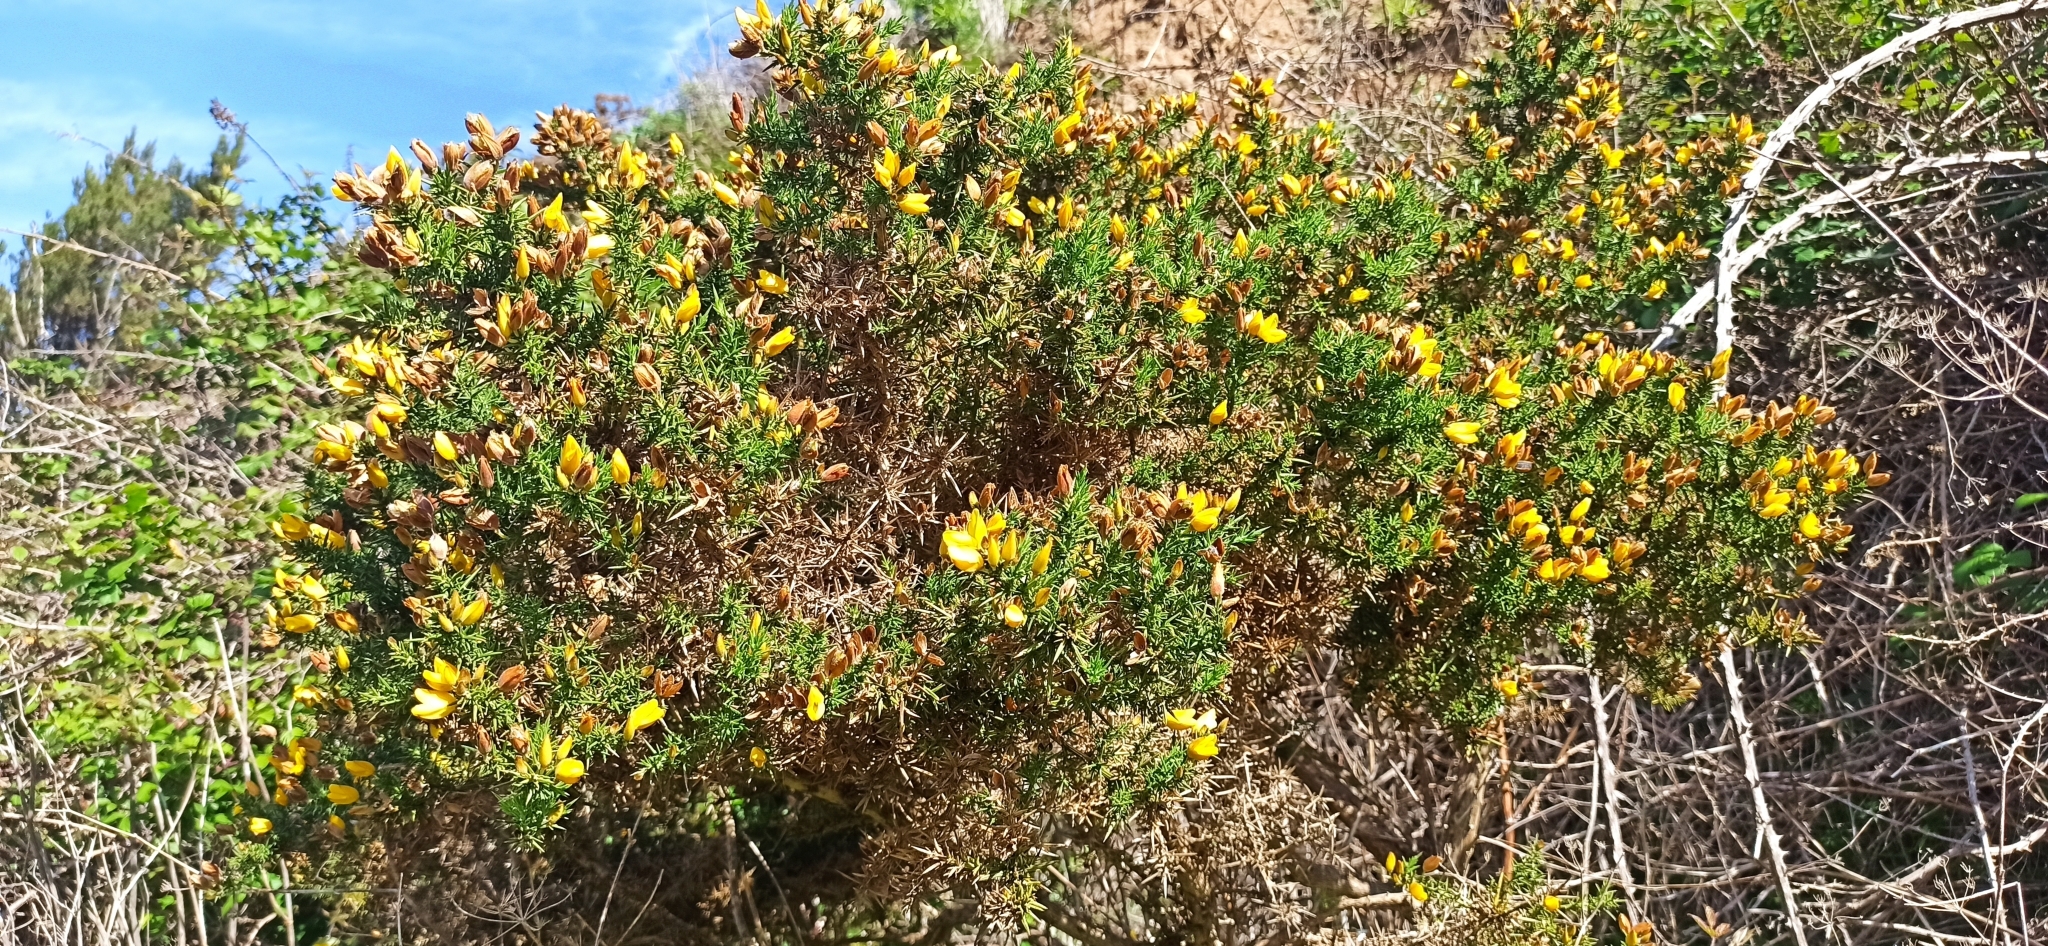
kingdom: Plantae
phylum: Tracheophyta
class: Magnoliopsida
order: Fabales
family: Fabaceae
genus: Ulex
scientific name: Ulex europaeus
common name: Common gorse
